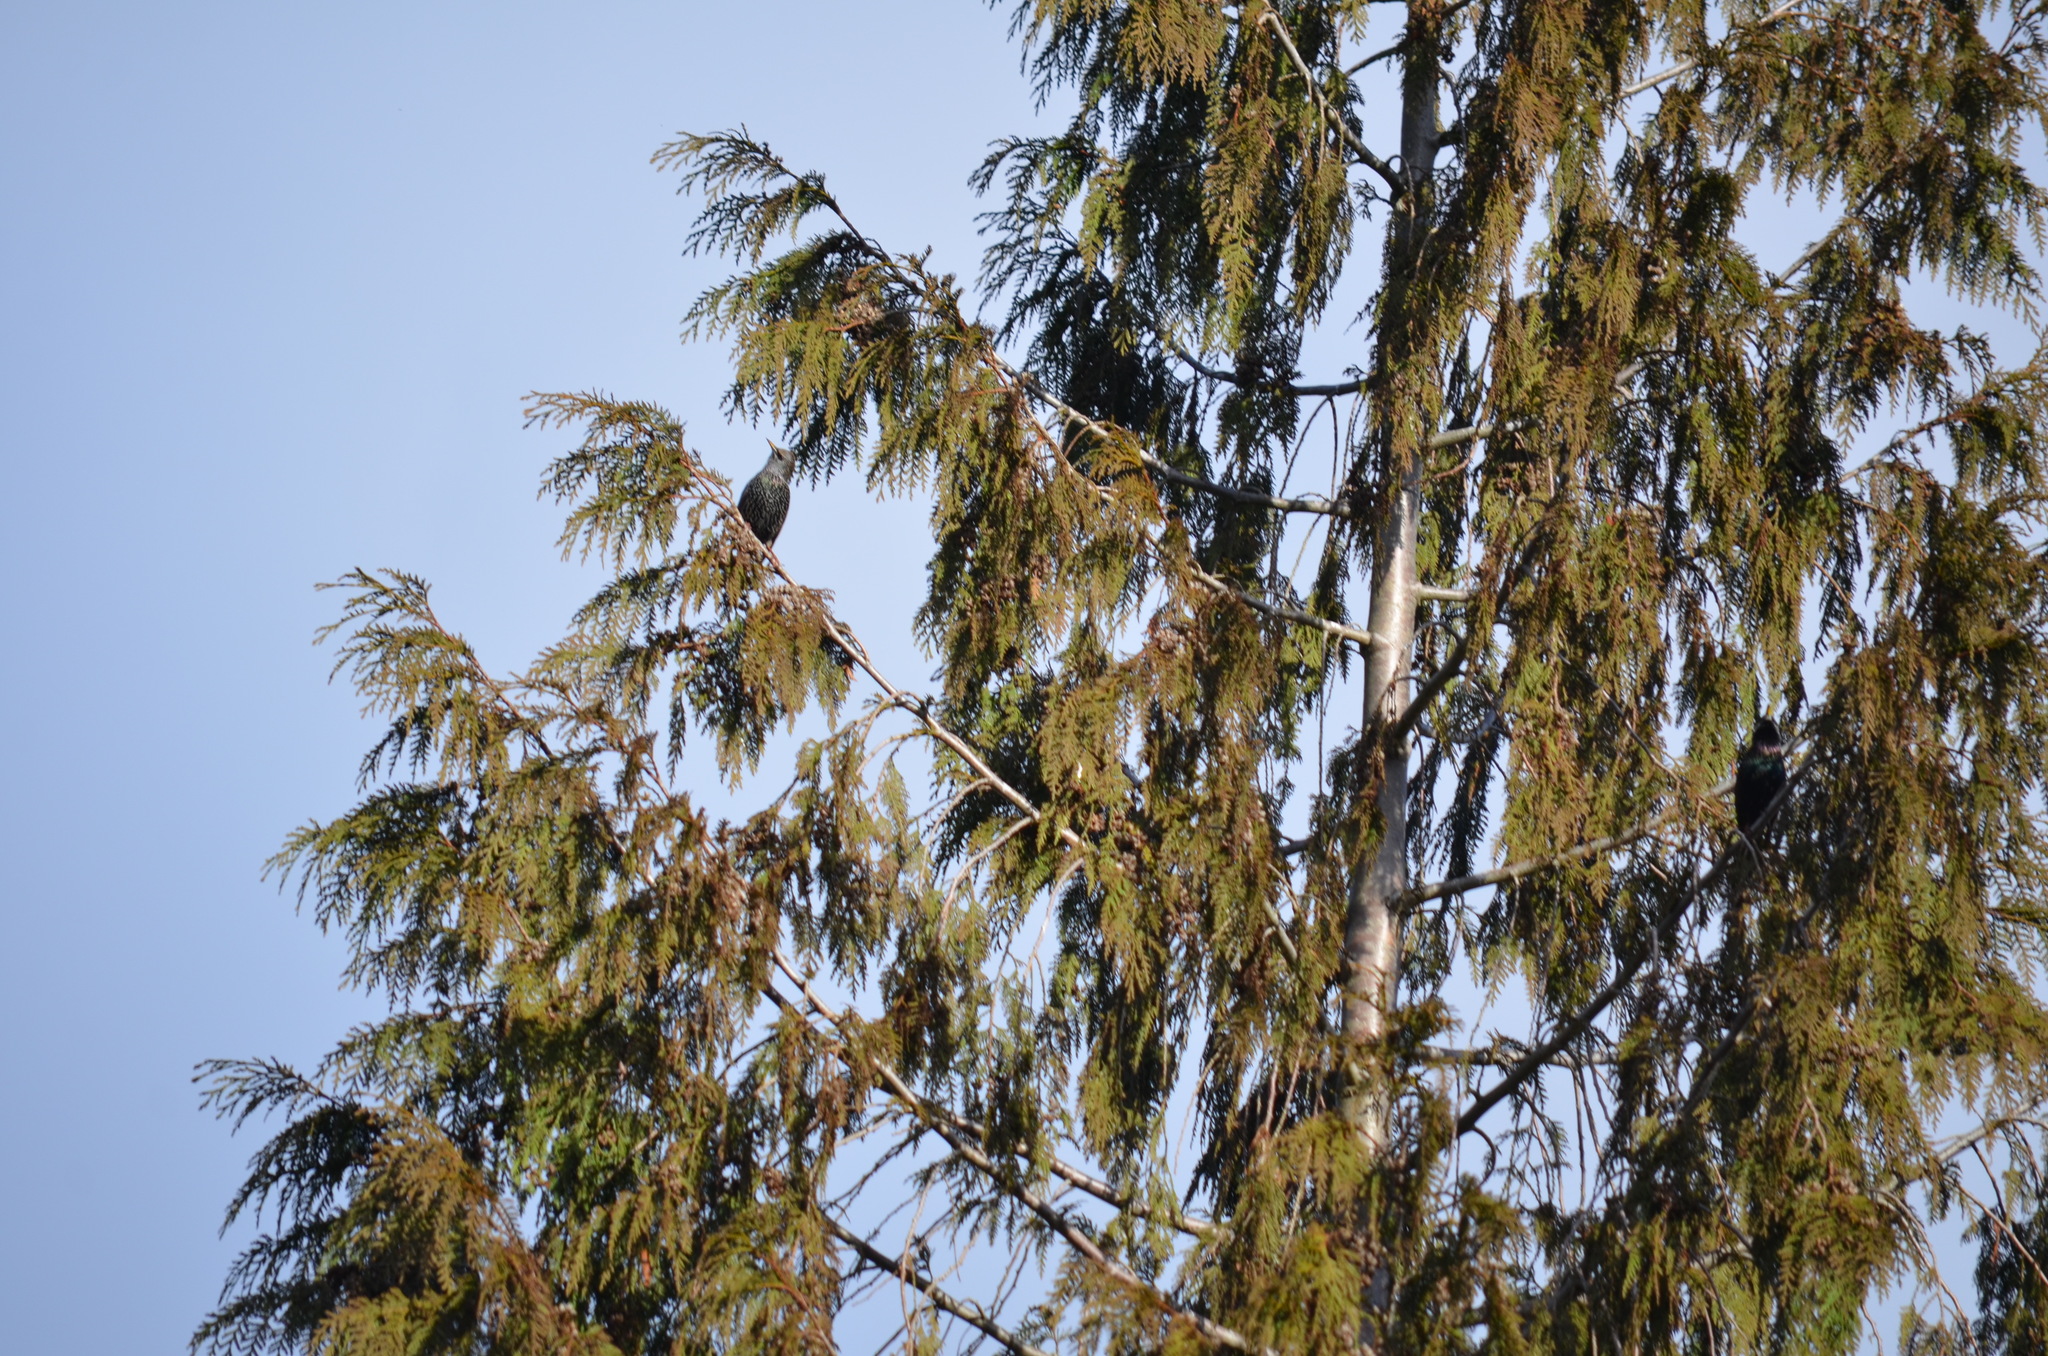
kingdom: Animalia
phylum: Chordata
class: Aves
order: Passeriformes
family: Sturnidae
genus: Sturnus
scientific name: Sturnus vulgaris
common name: Common starling
